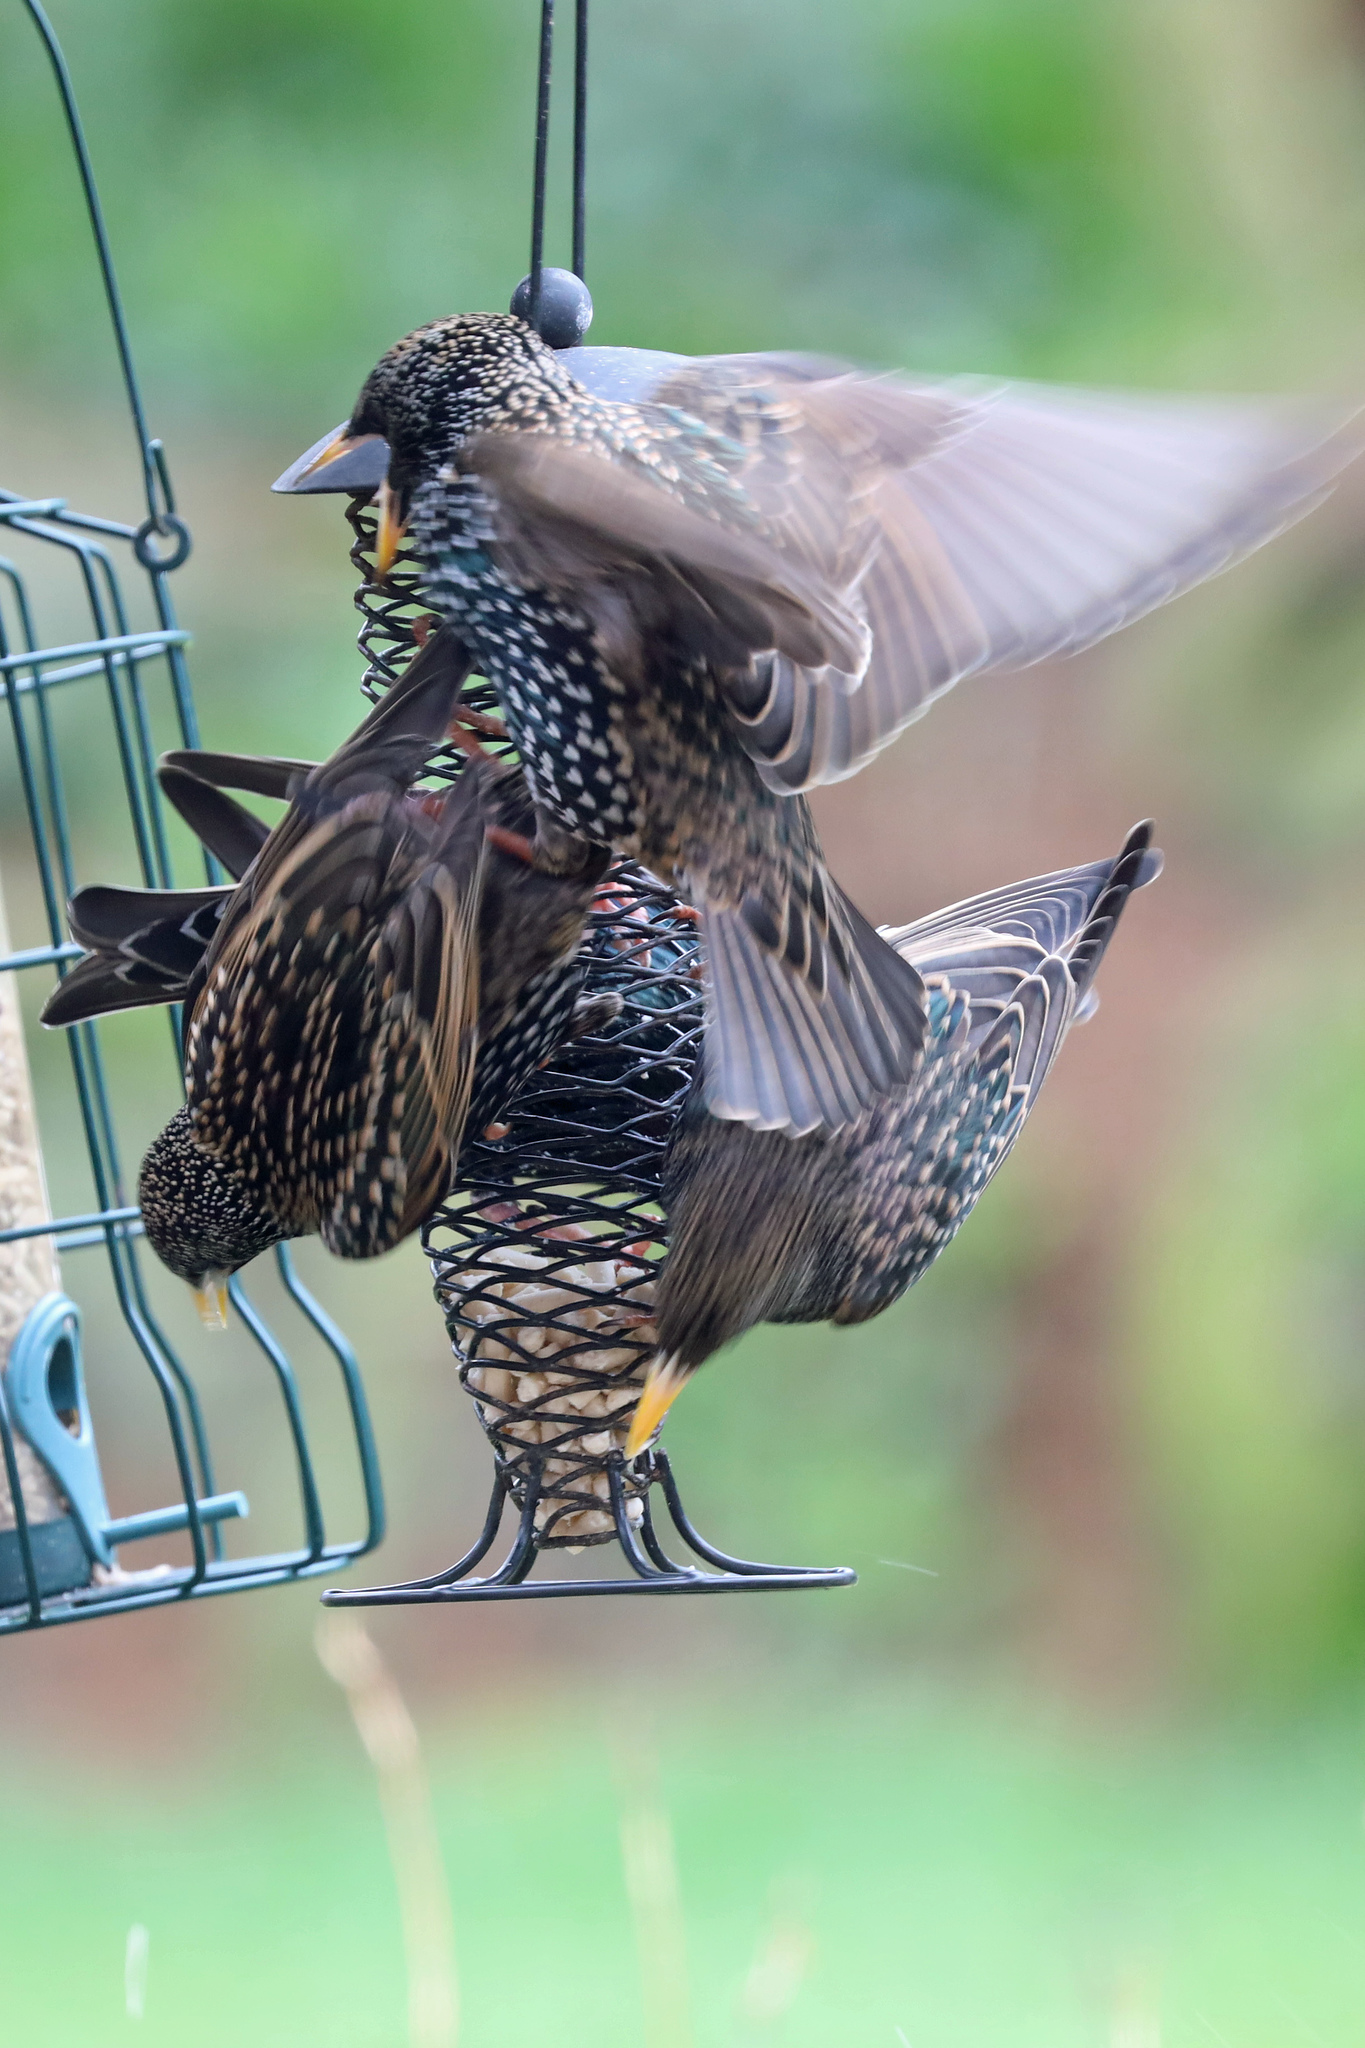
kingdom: Animalia
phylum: Chordata
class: Aves
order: Passeriformes
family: Sturnidae
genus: Sturnus
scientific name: Sturnus vulgaris
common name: Common starling
